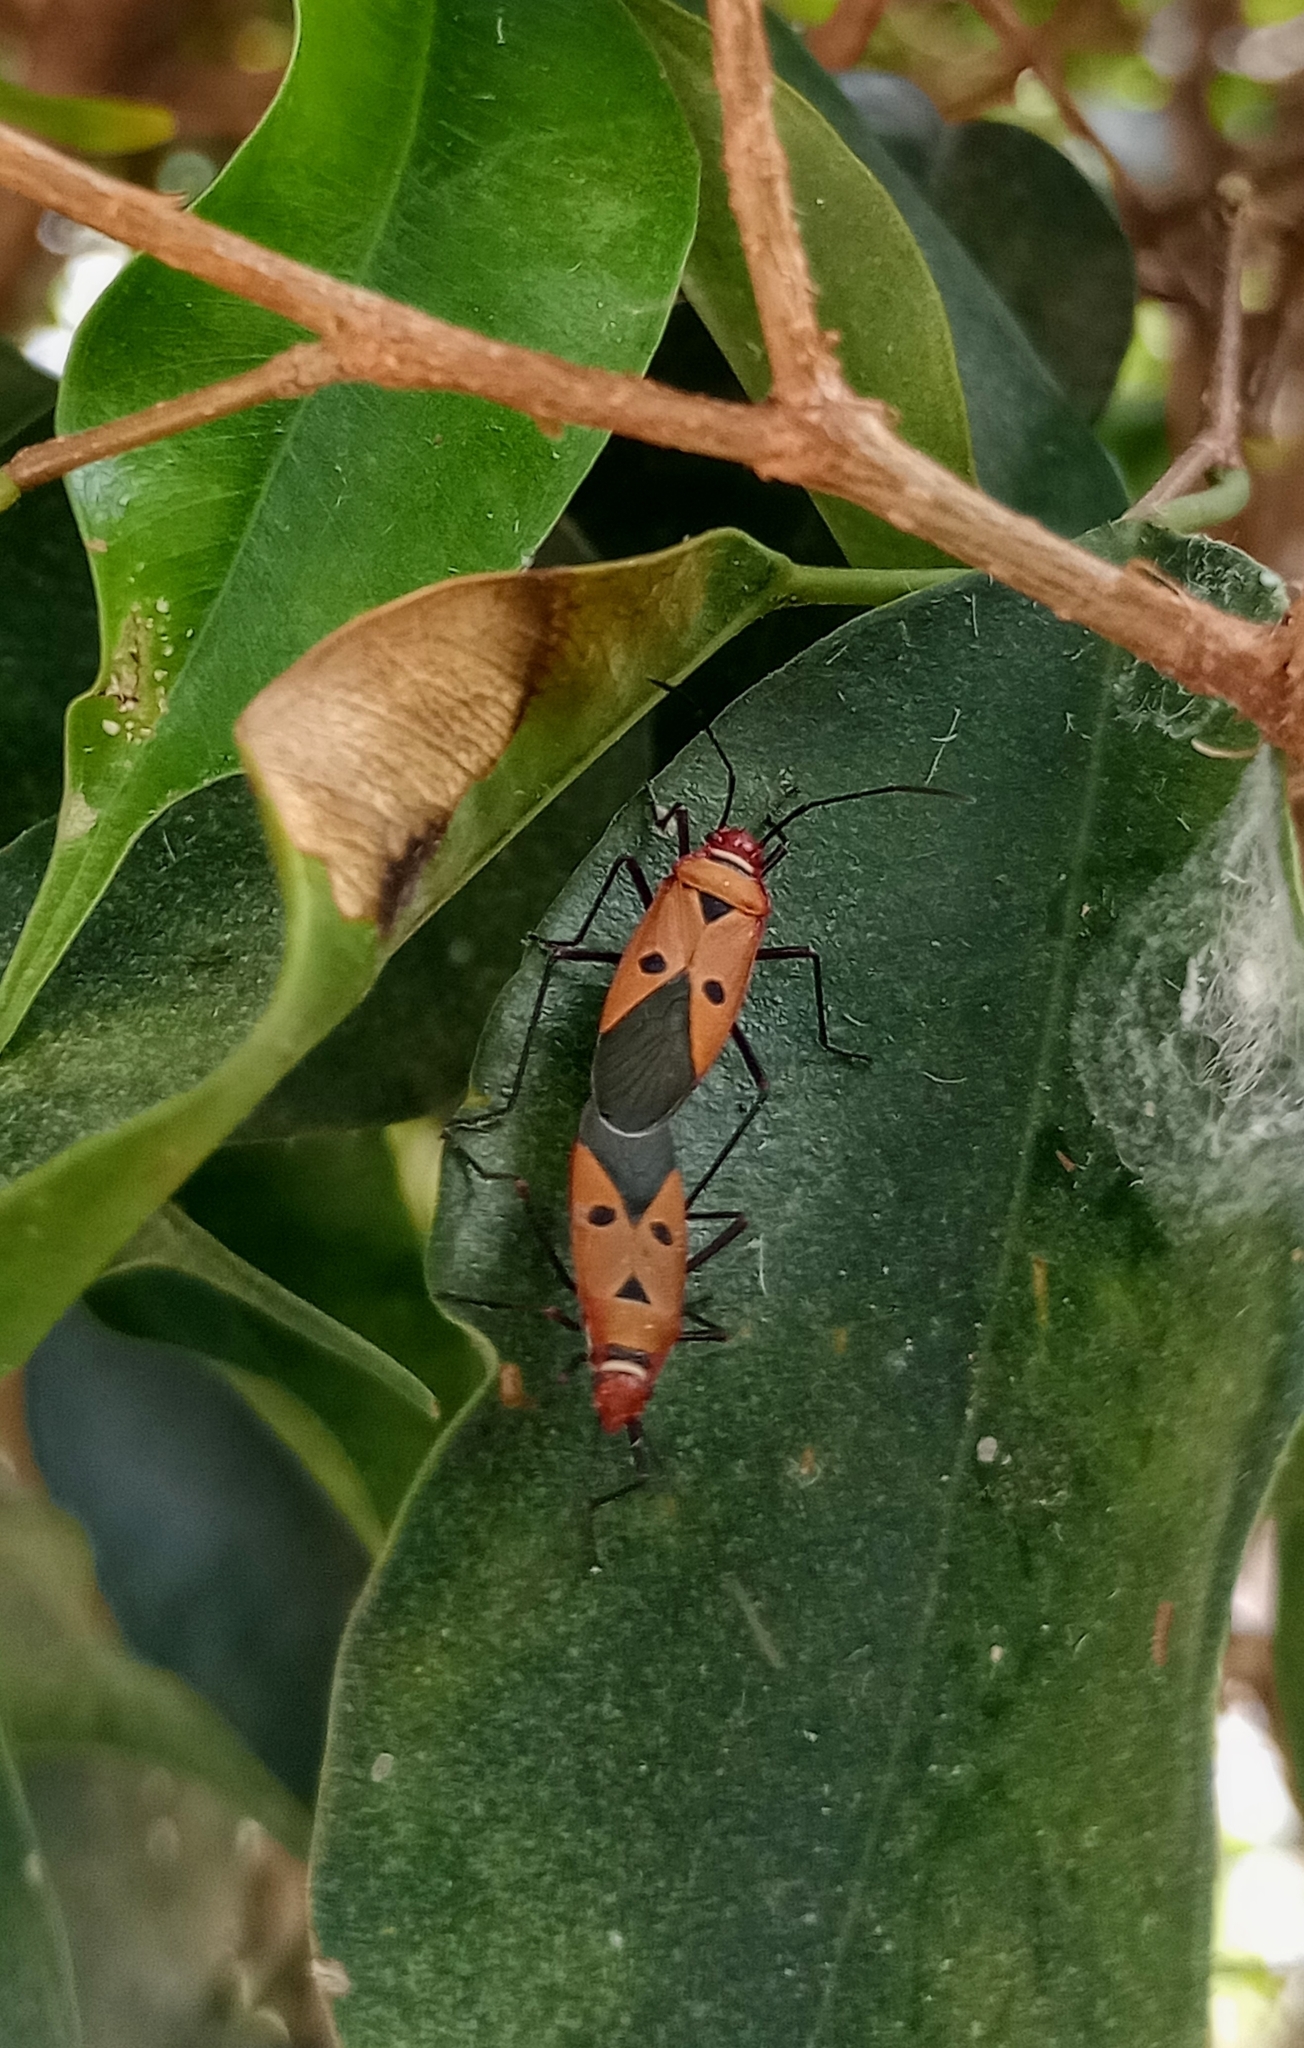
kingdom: Animalia
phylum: Arthropoda
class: Insecta
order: Hemiptera
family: Pyrrhocoridae
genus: Dysdercus
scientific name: Dysdercus cingulatus
